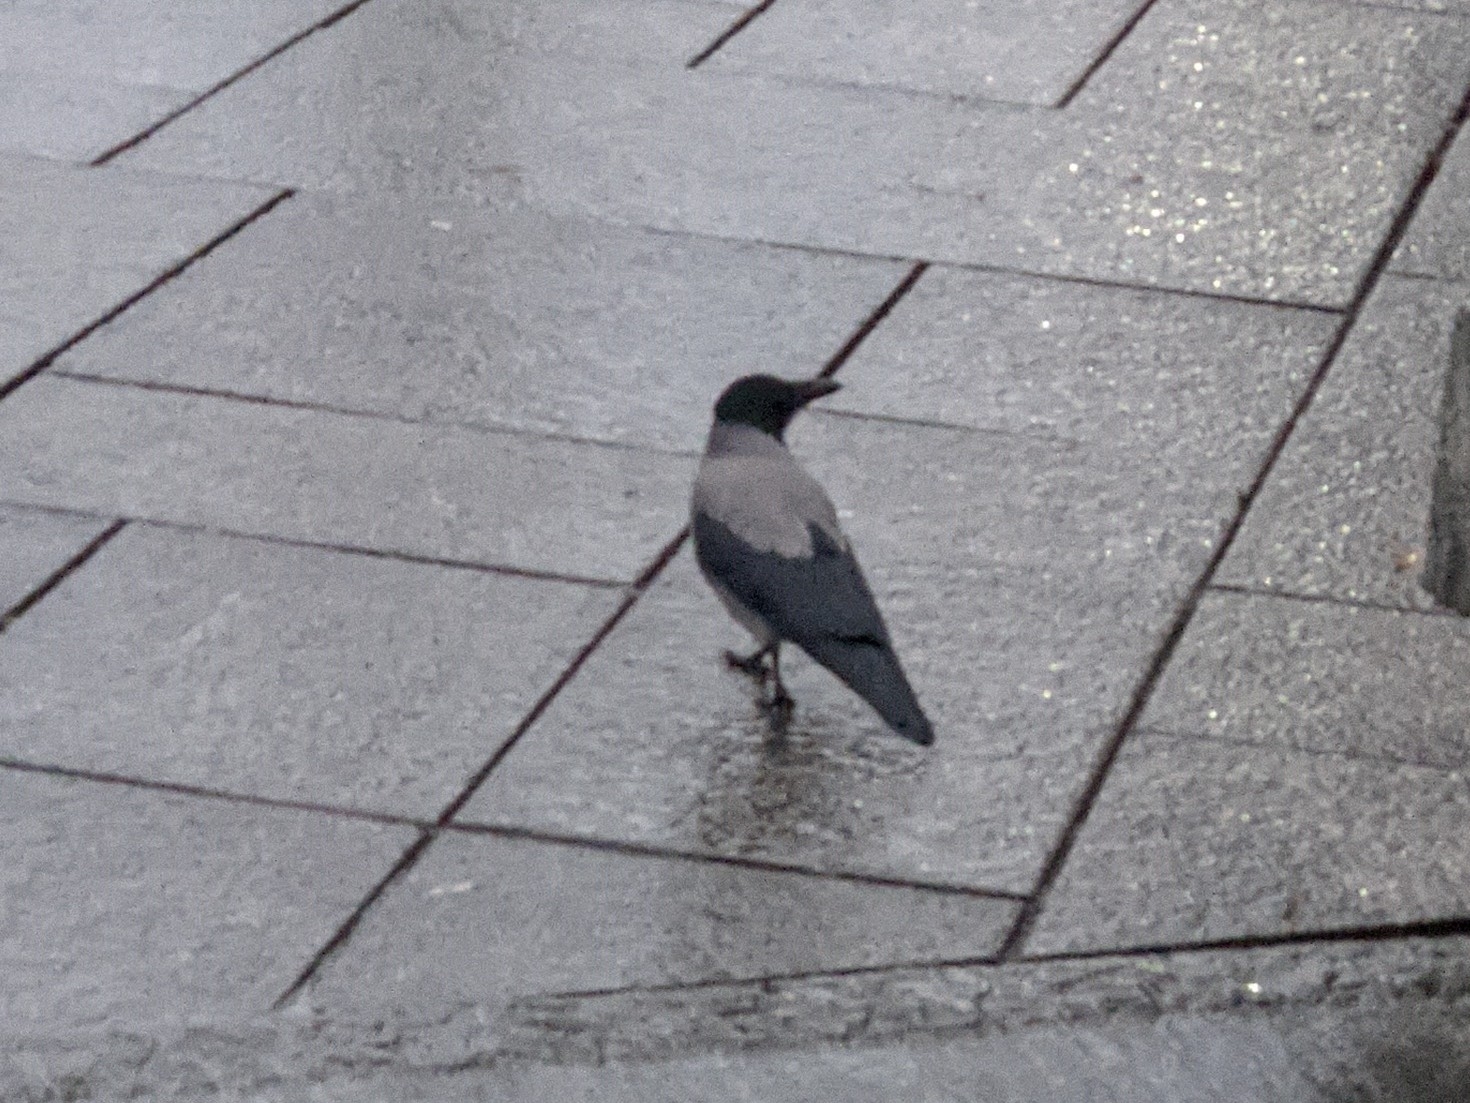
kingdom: Animalia
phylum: Chordata
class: Aves
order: Passeriformes
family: Corvidae
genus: Corvus
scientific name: Corvus cornix
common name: Hooded crow
